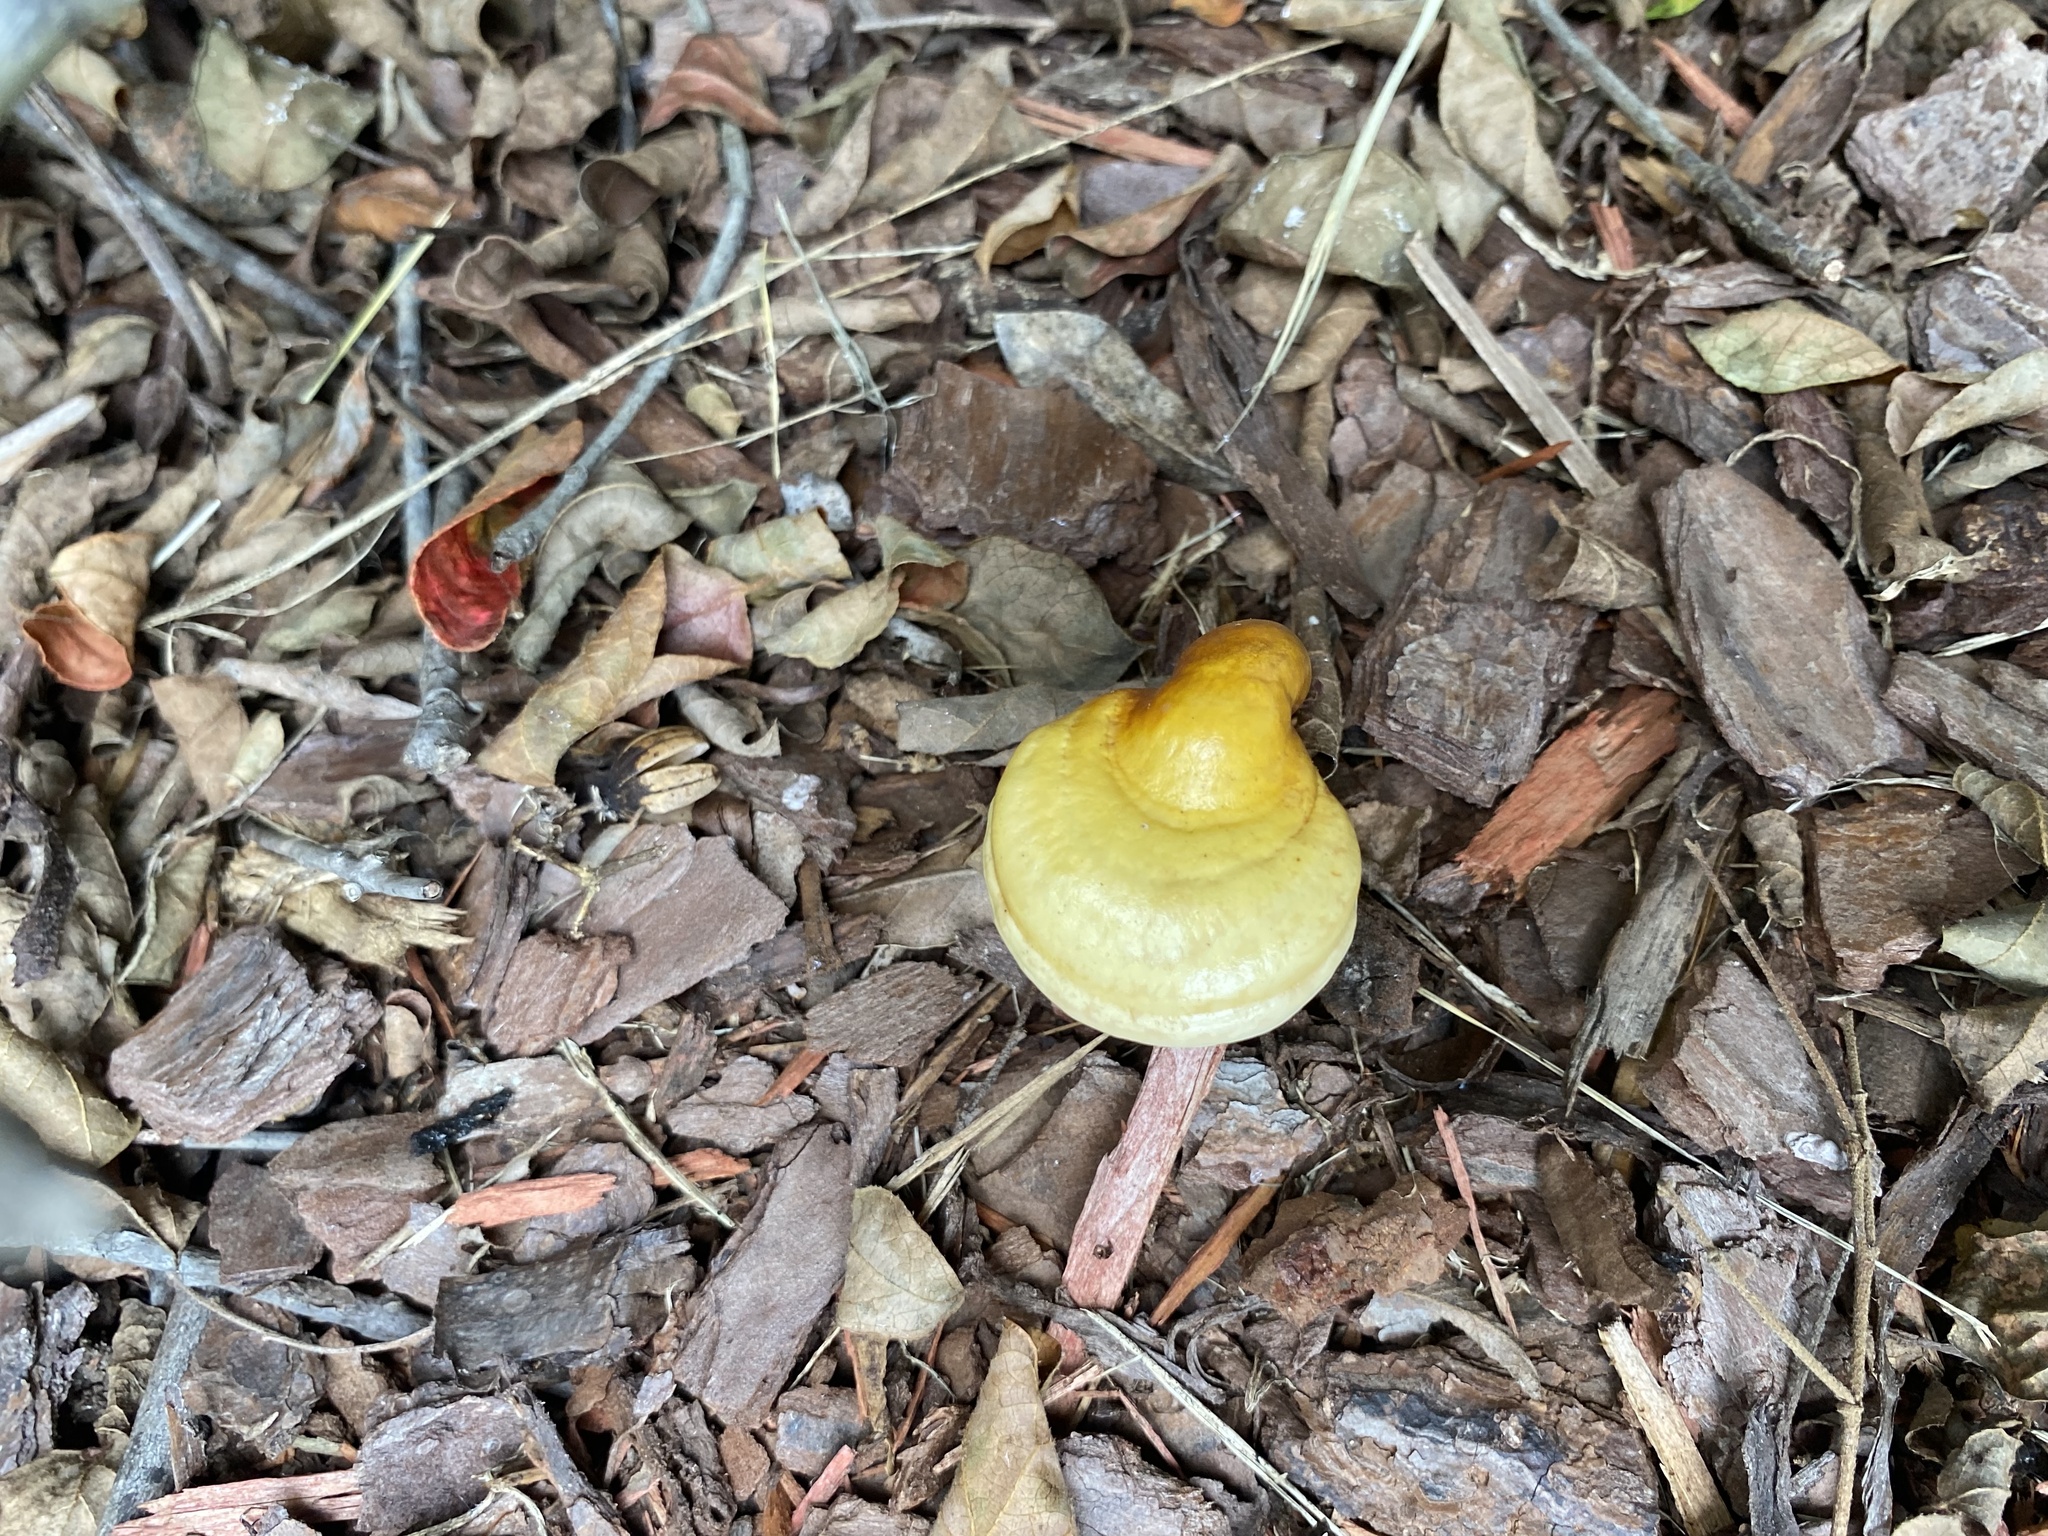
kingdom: Fungi
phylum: Basidiomycota
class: Agaricomycetes
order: Polyporales
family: Polyporaceae
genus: Ganoderma
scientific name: Ganoderma curtisii
